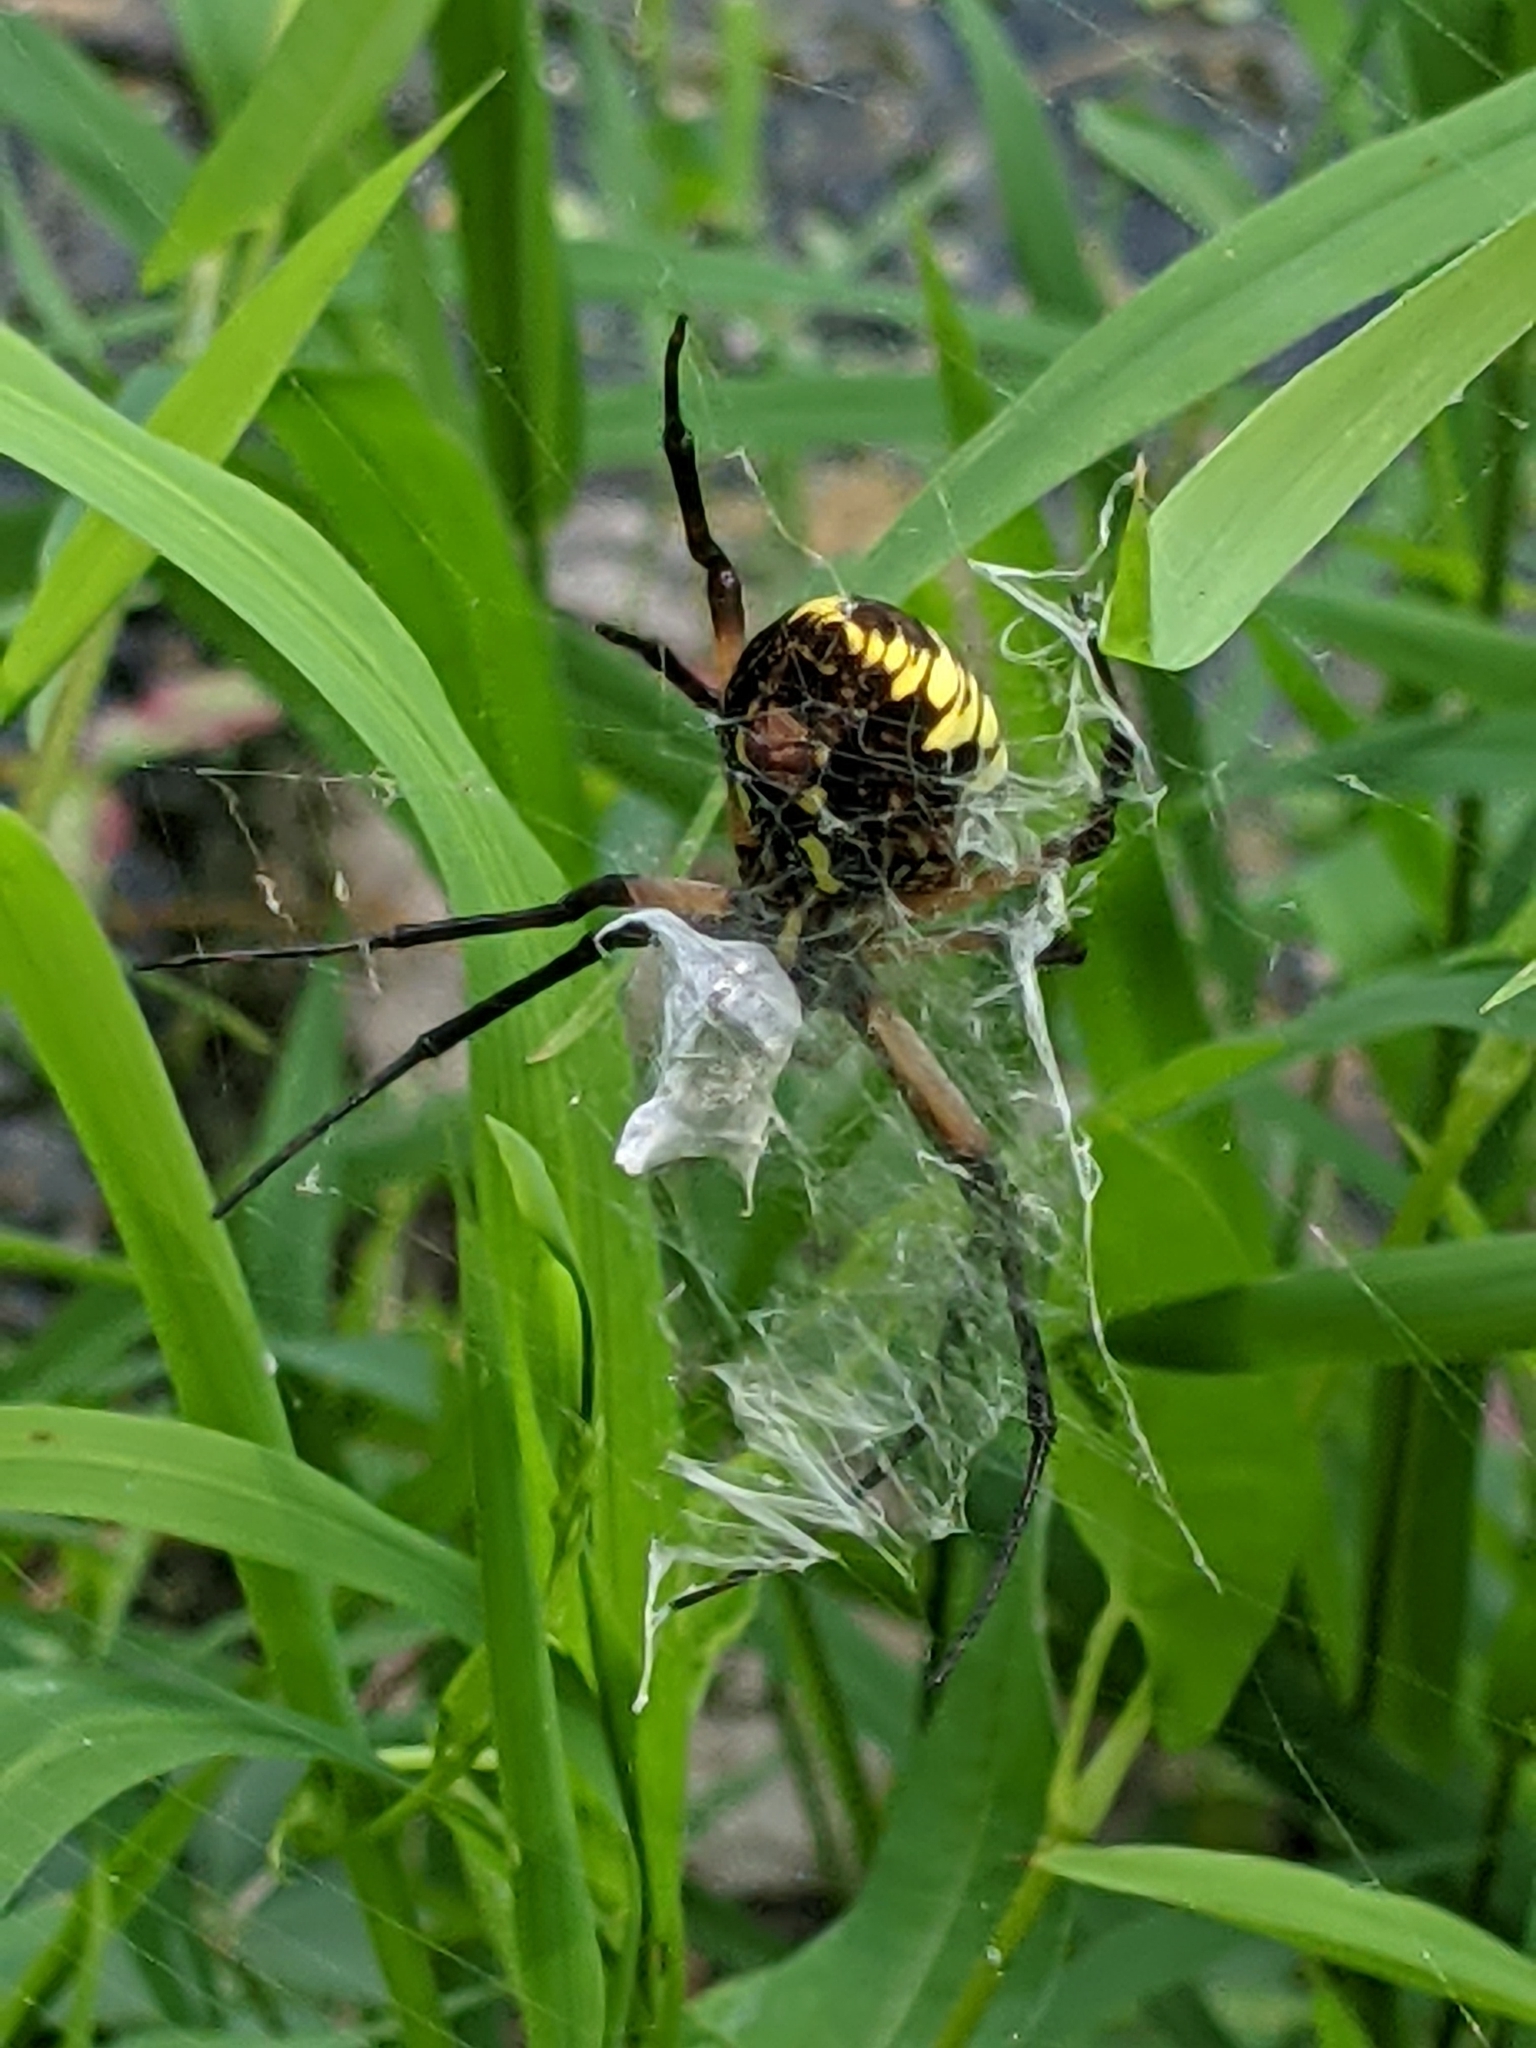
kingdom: Animalia
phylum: Arthropoda
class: Arachnida
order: Araneae
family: Araneidae
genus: Argiope
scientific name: Argiope aurantia
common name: Orb weavers
